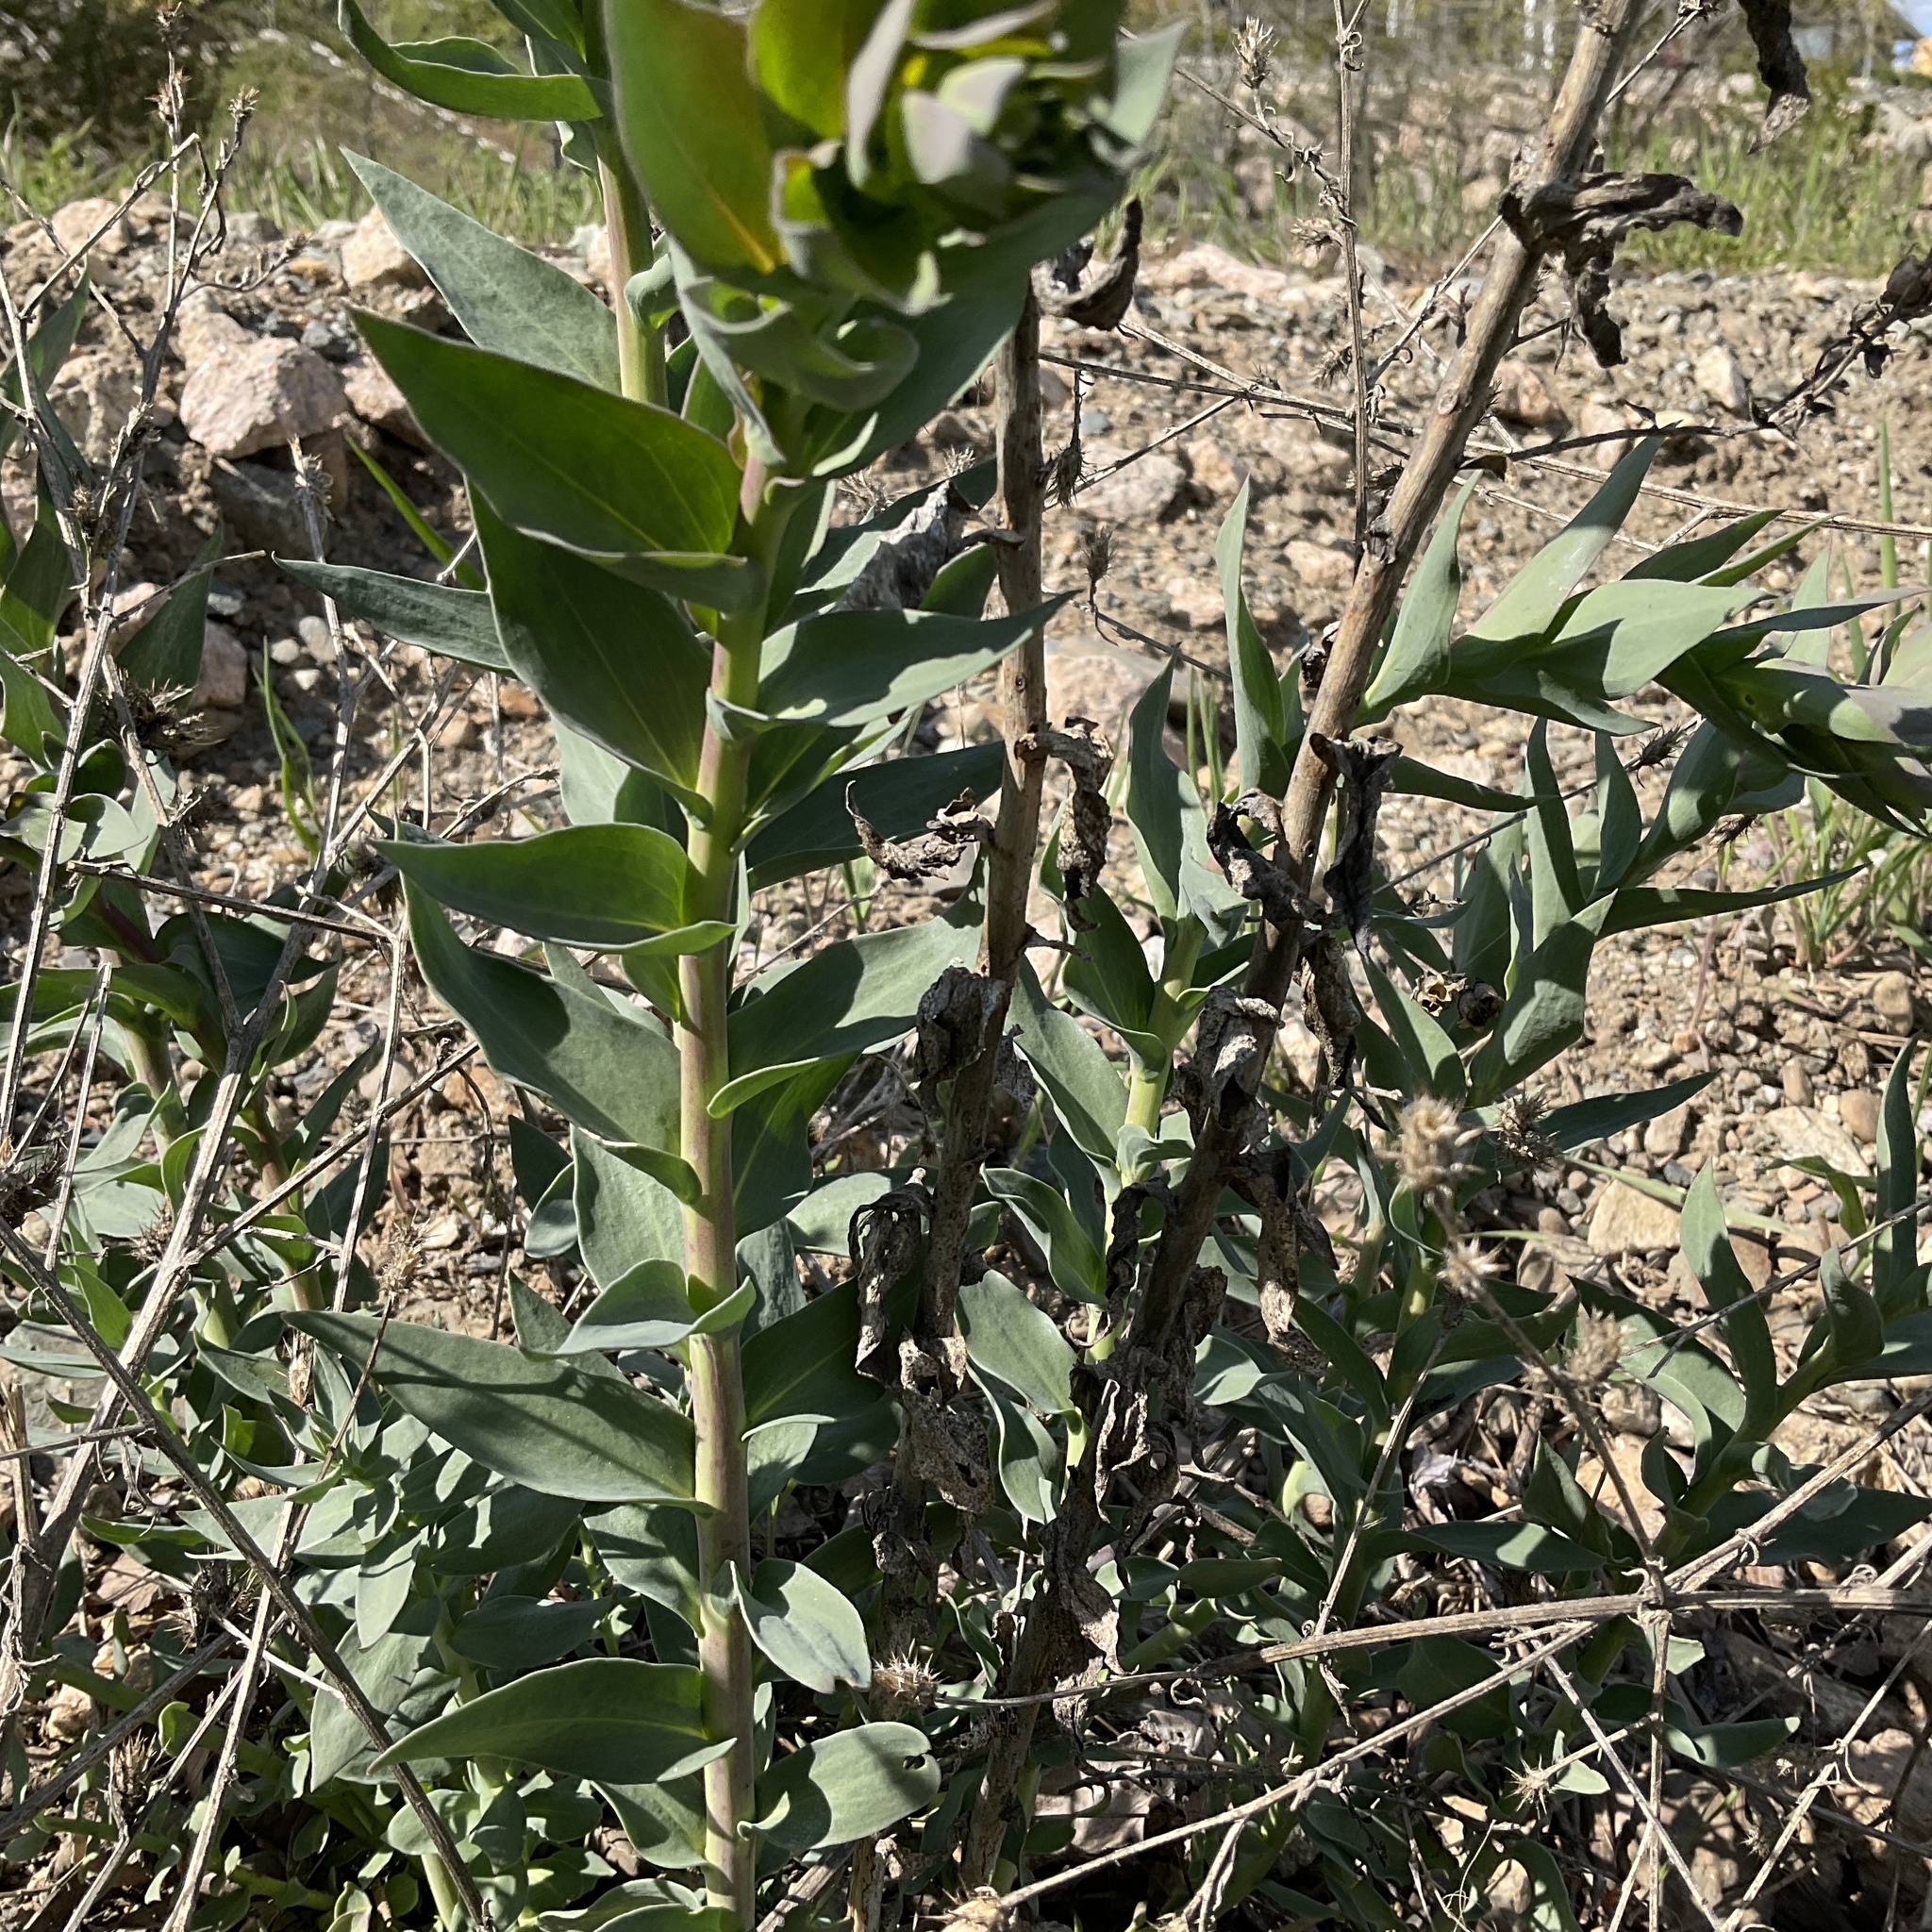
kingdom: Plantae
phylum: Tracheophyta
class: Magnoliopsida
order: Lamiales
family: Plantaginaceae
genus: Linaria
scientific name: Linaria dalmatica
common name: Dalmatian toadflax
